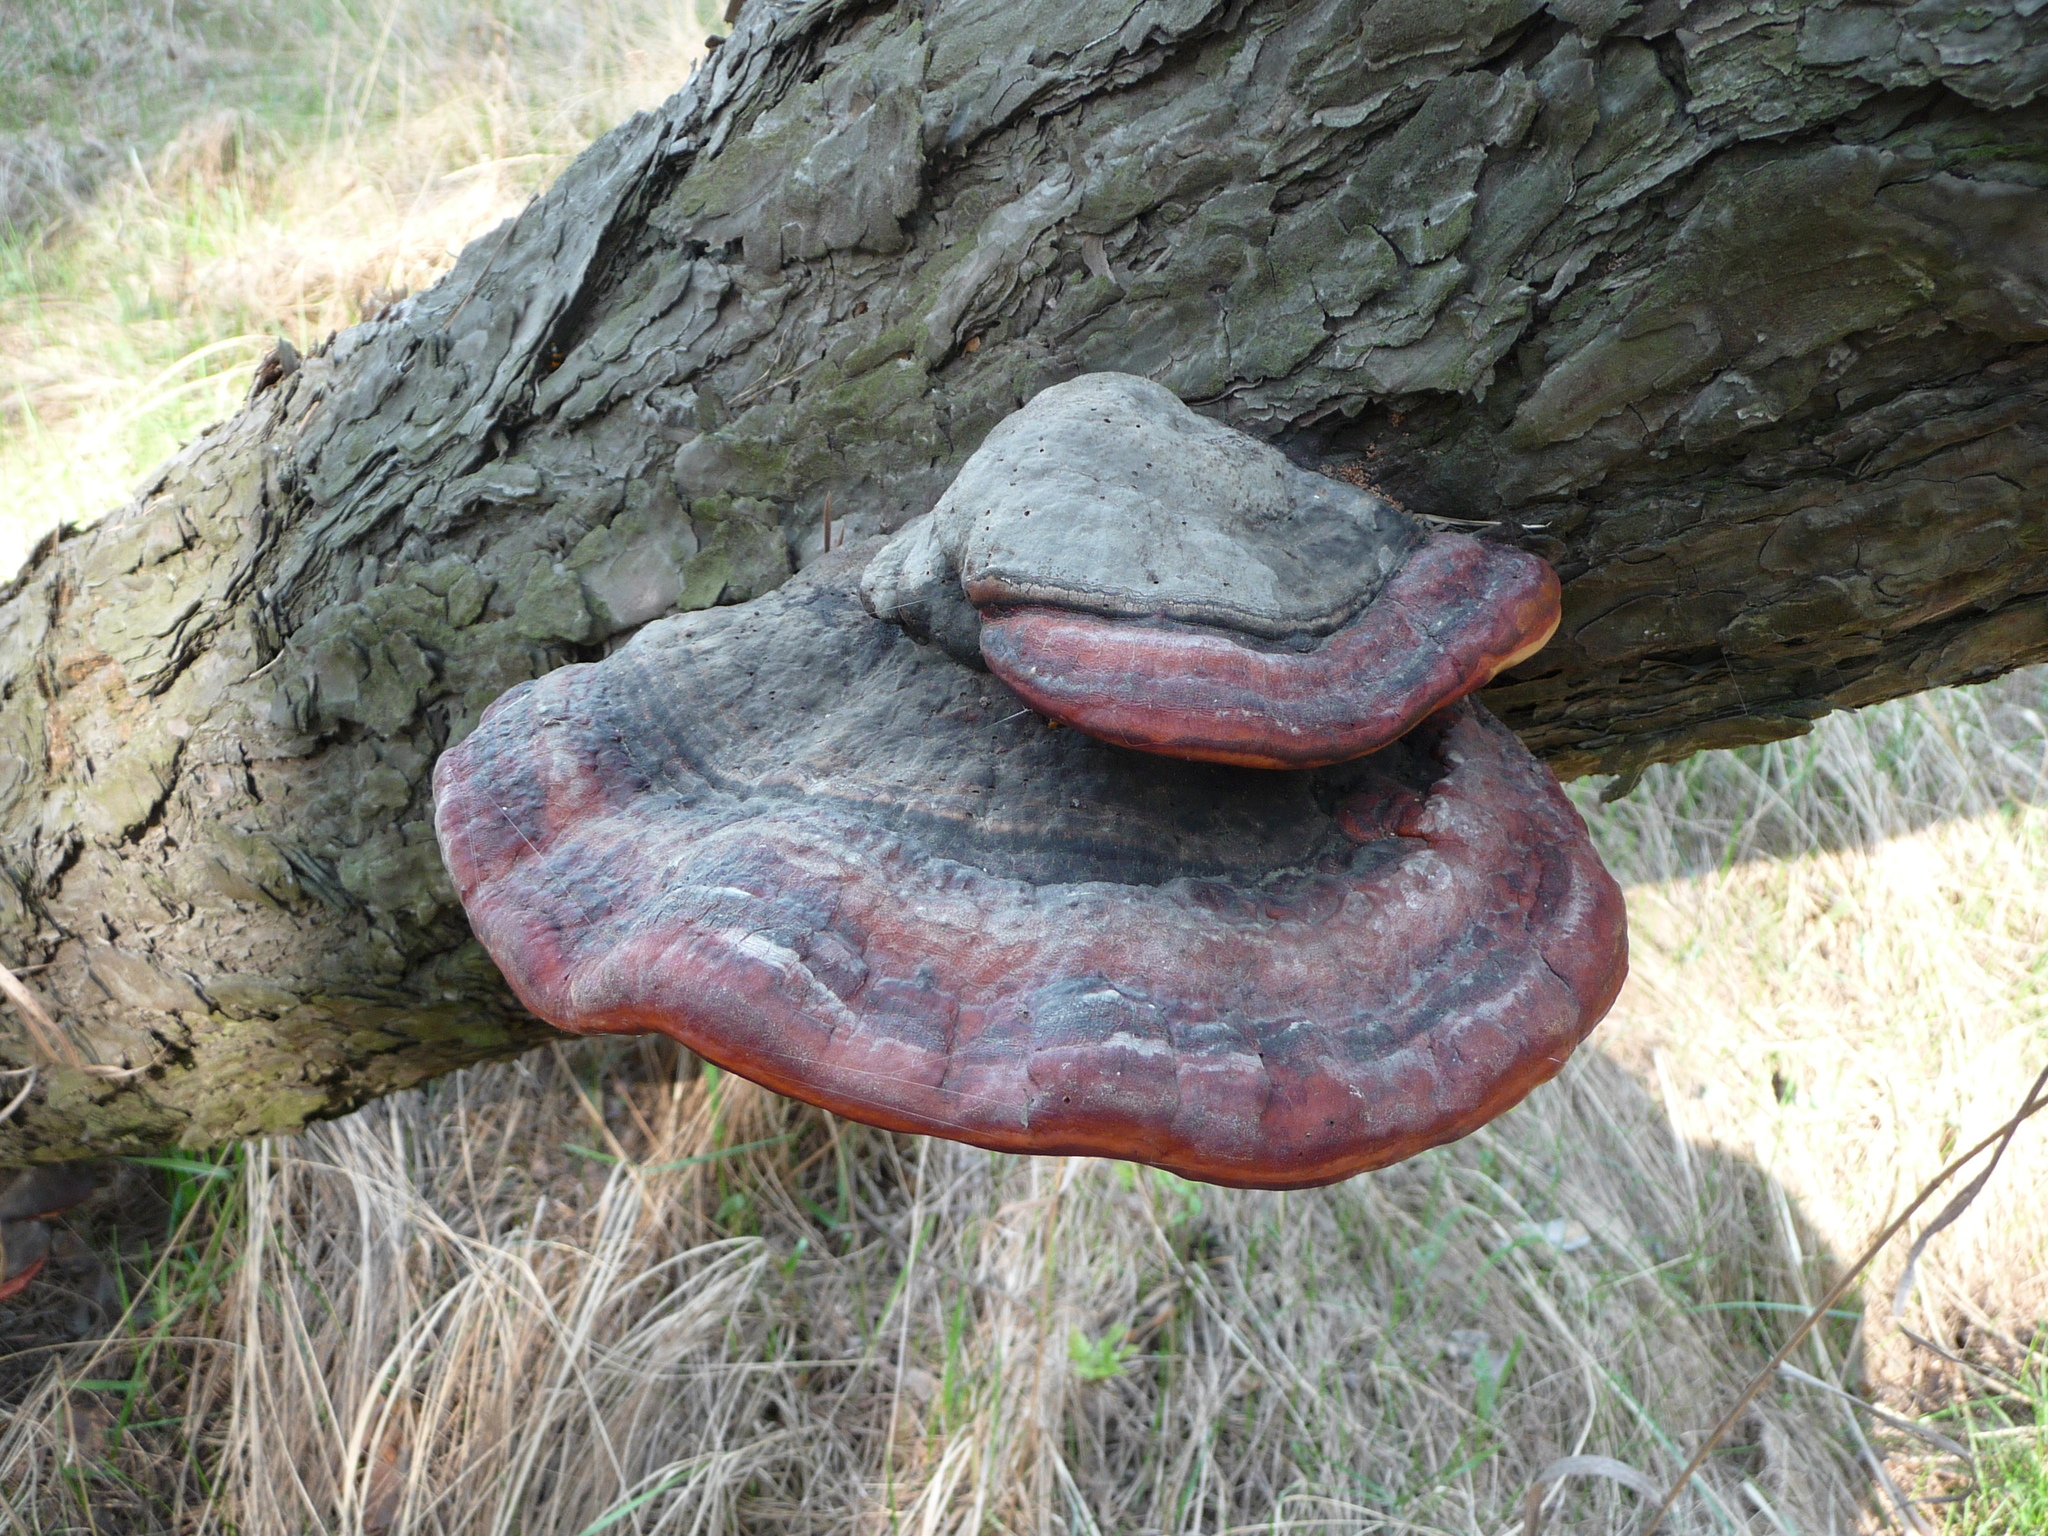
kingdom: Fungi
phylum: Basidiomycota
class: Agaricomycetes
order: Polyporales
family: Fomitopsidaceae
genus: Fomitopsis
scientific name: Fomitopsis pinicola
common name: Red-belted bracket
